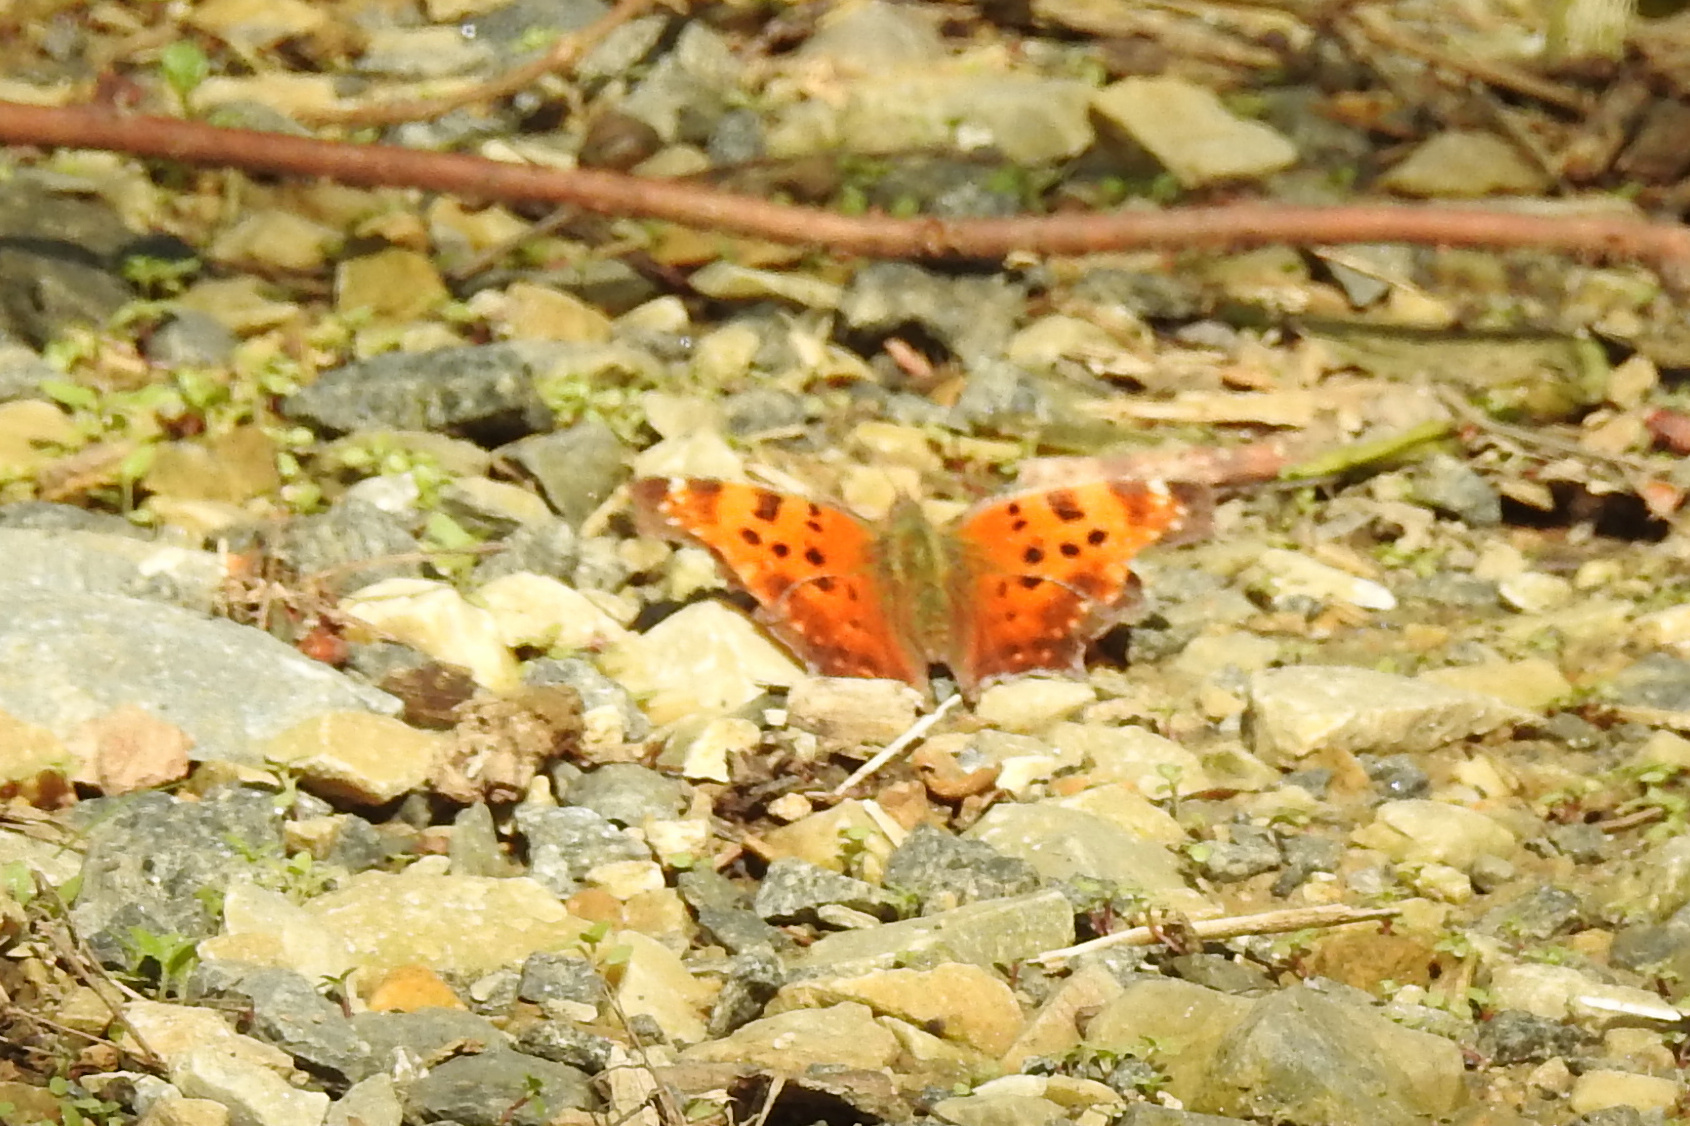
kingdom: Animalia
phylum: Arthropoda
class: Insecta
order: Lepidoptera
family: Nymphalidae
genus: Polygonia
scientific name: Polygonia comma
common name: Eastern comma
